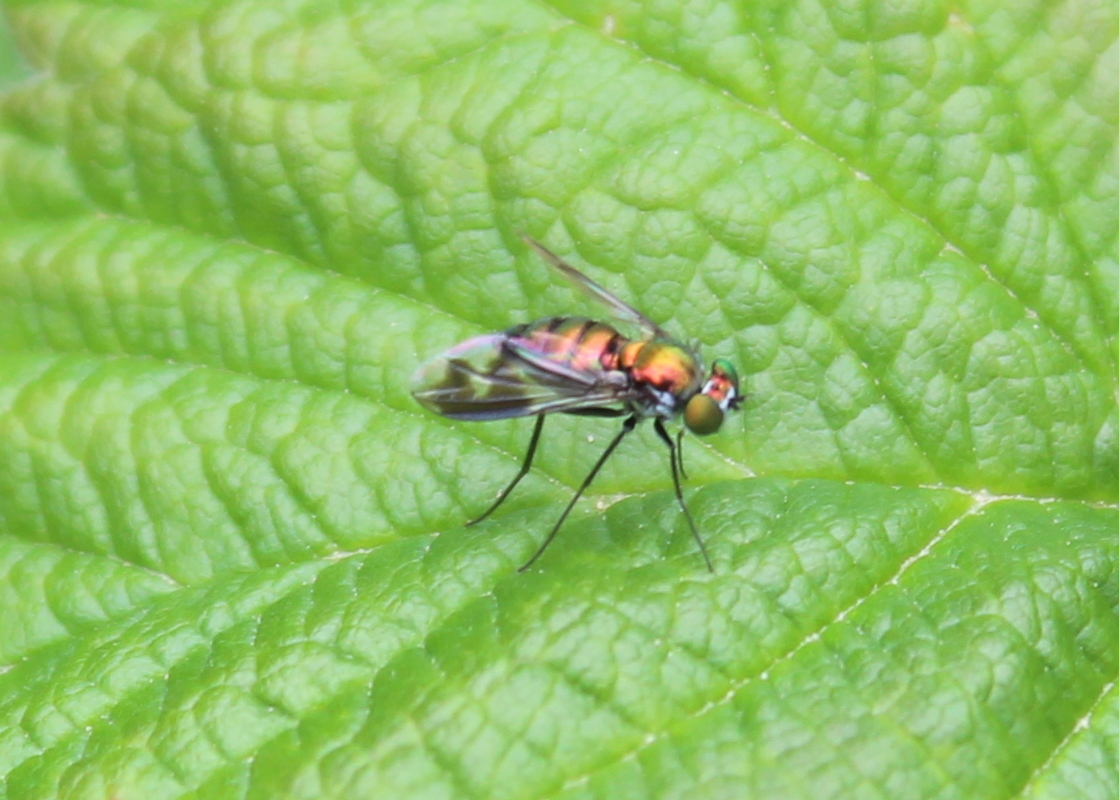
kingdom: Animalia
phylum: Arthropoda
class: Insecta
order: Diptera
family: Dolichopodidae
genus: Condylostylus
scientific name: Condylostylus patibulatus
